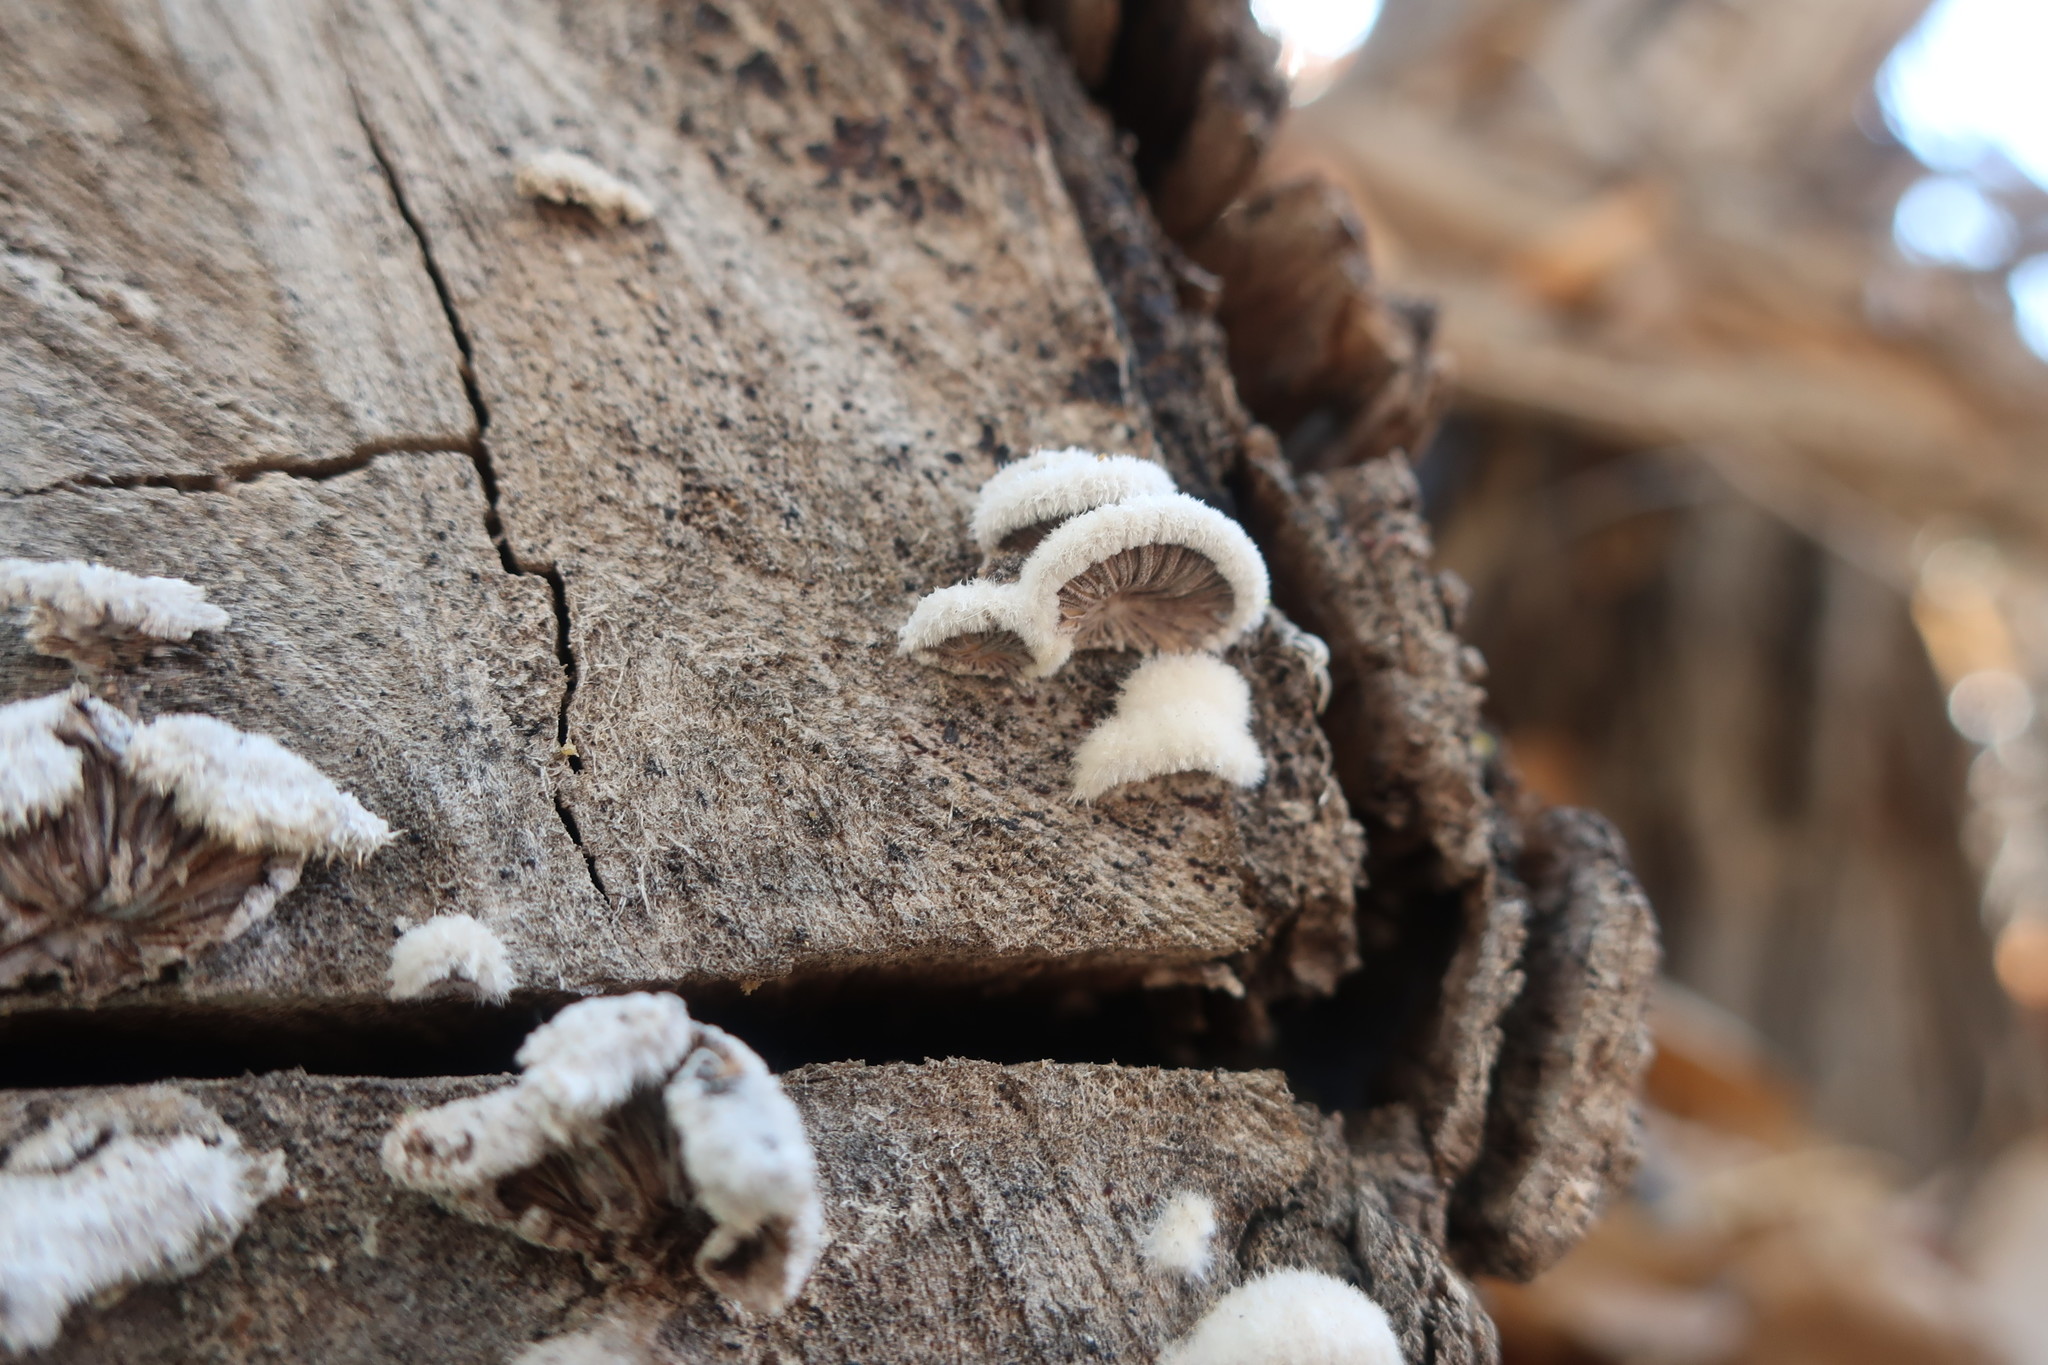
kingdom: Fungi
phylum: Basidiomycota
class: Agaricomycetes
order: Agaricales
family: Schizophyllaceae
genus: Schizophyllum
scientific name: Schizophyllum commune
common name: Common porecrust
